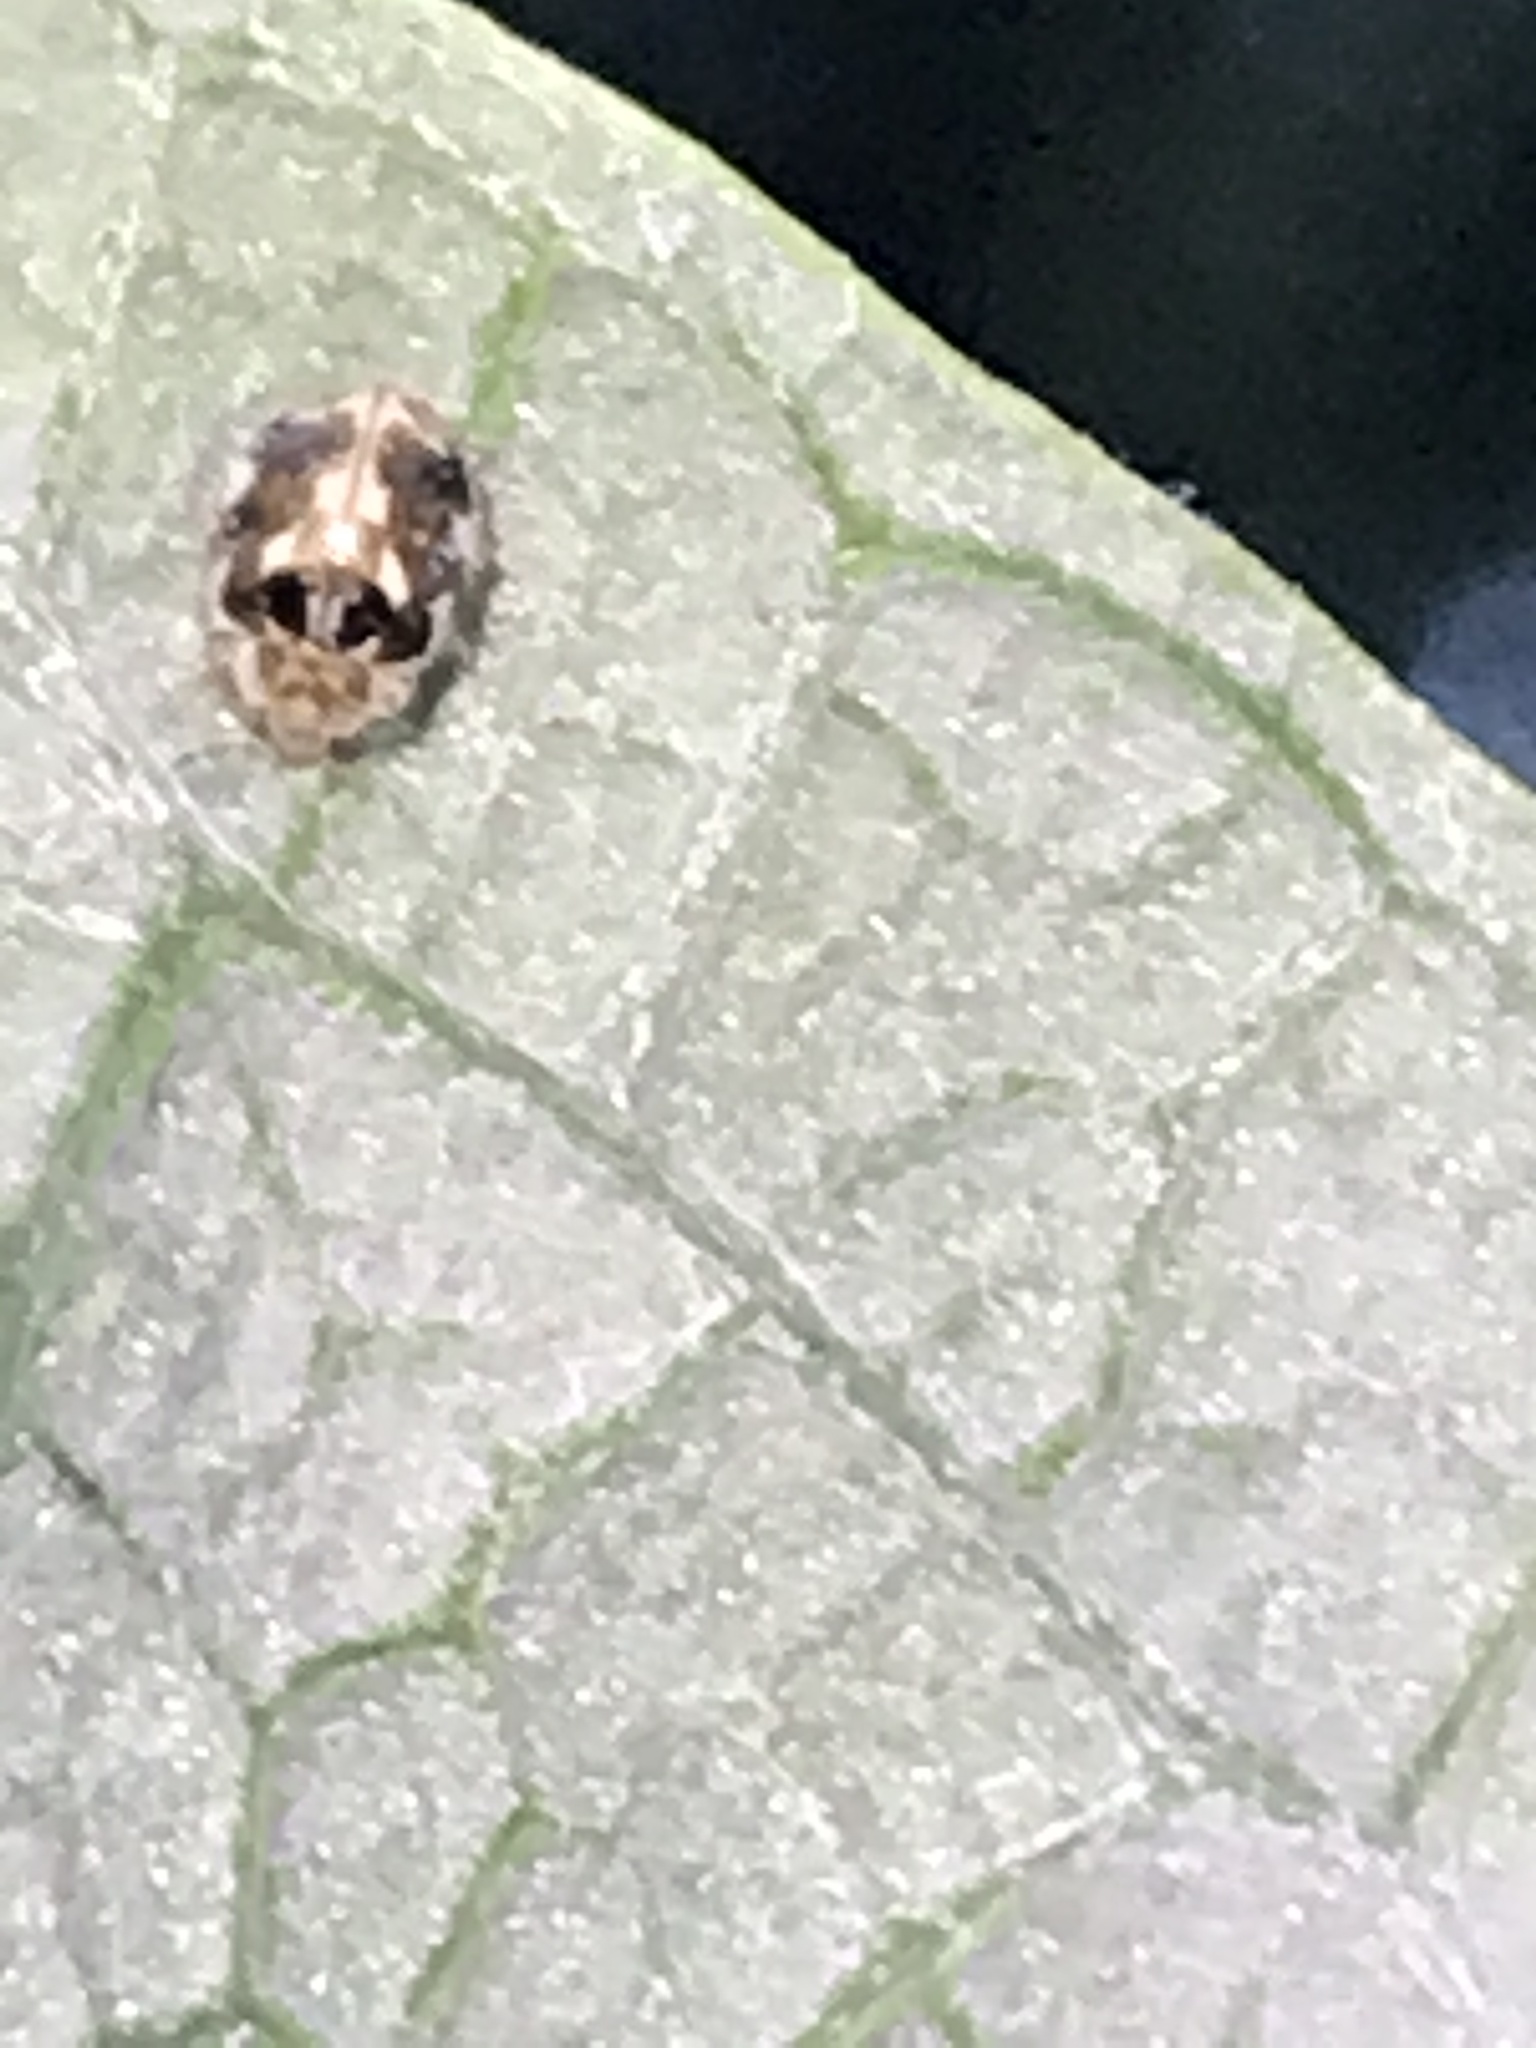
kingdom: Animalia
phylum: Arthropoda
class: Insecta
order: Coleoptera
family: Coccinellidae
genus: Psyllobora
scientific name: Psyllobora vigintimaculata
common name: Ladybird beetle
